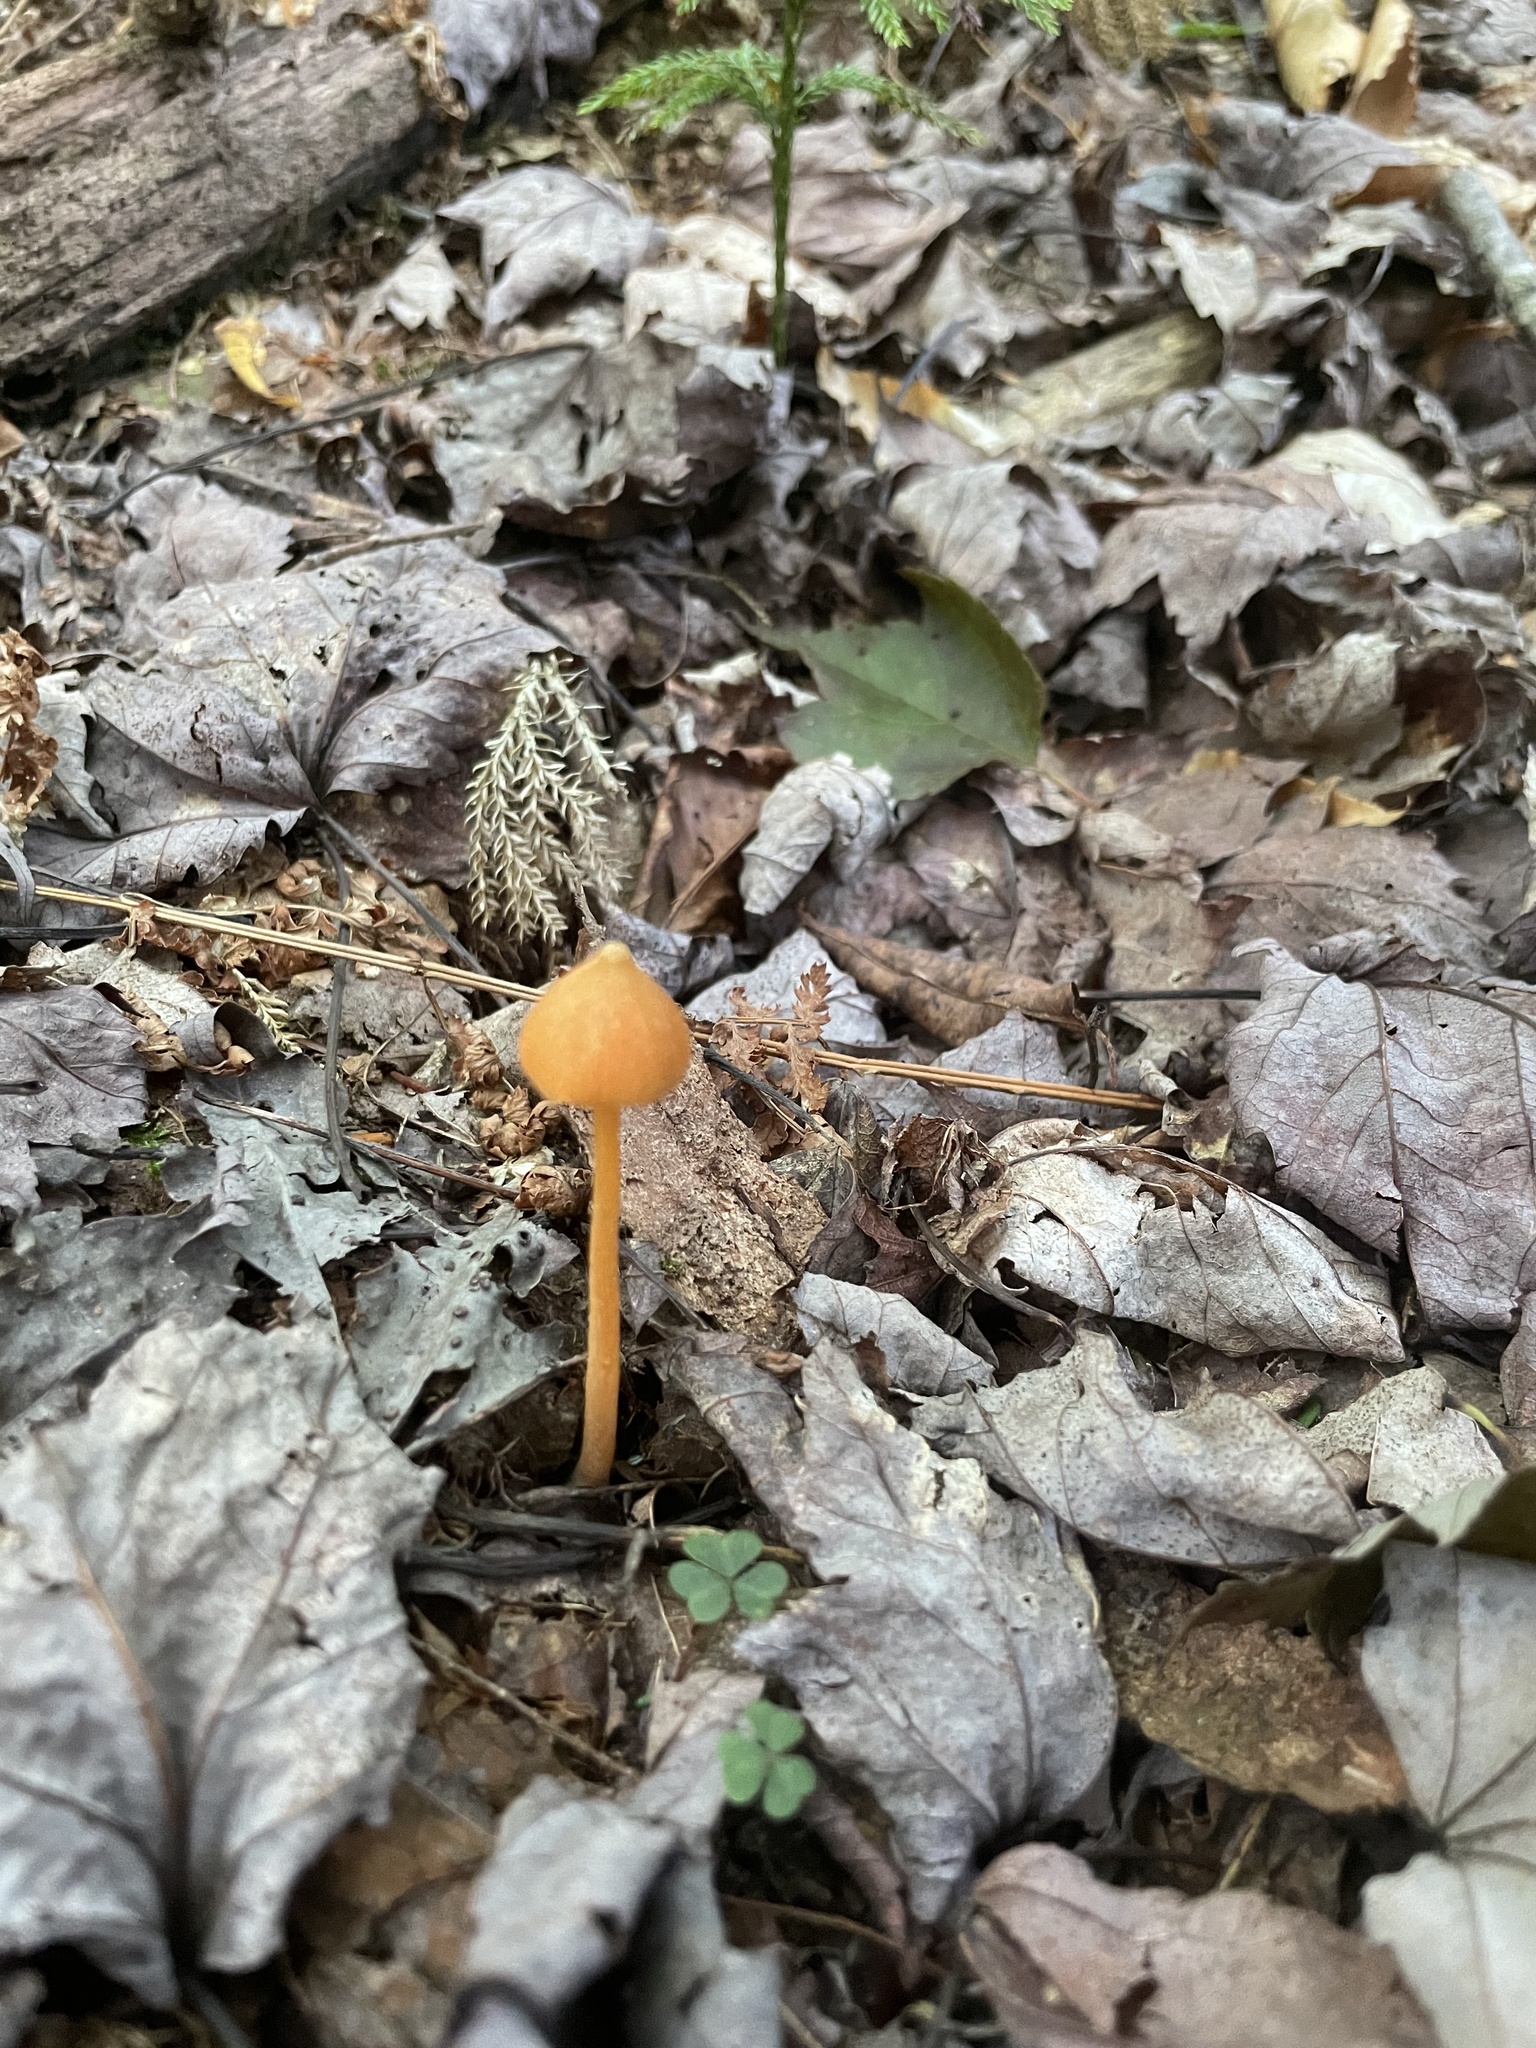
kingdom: Fungi
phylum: Basidiomycota
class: Agaricomycetes
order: Agaricales
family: Entolomataceae
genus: Entoloma
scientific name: Entoloma quadratum
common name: Salmon pinkgill
